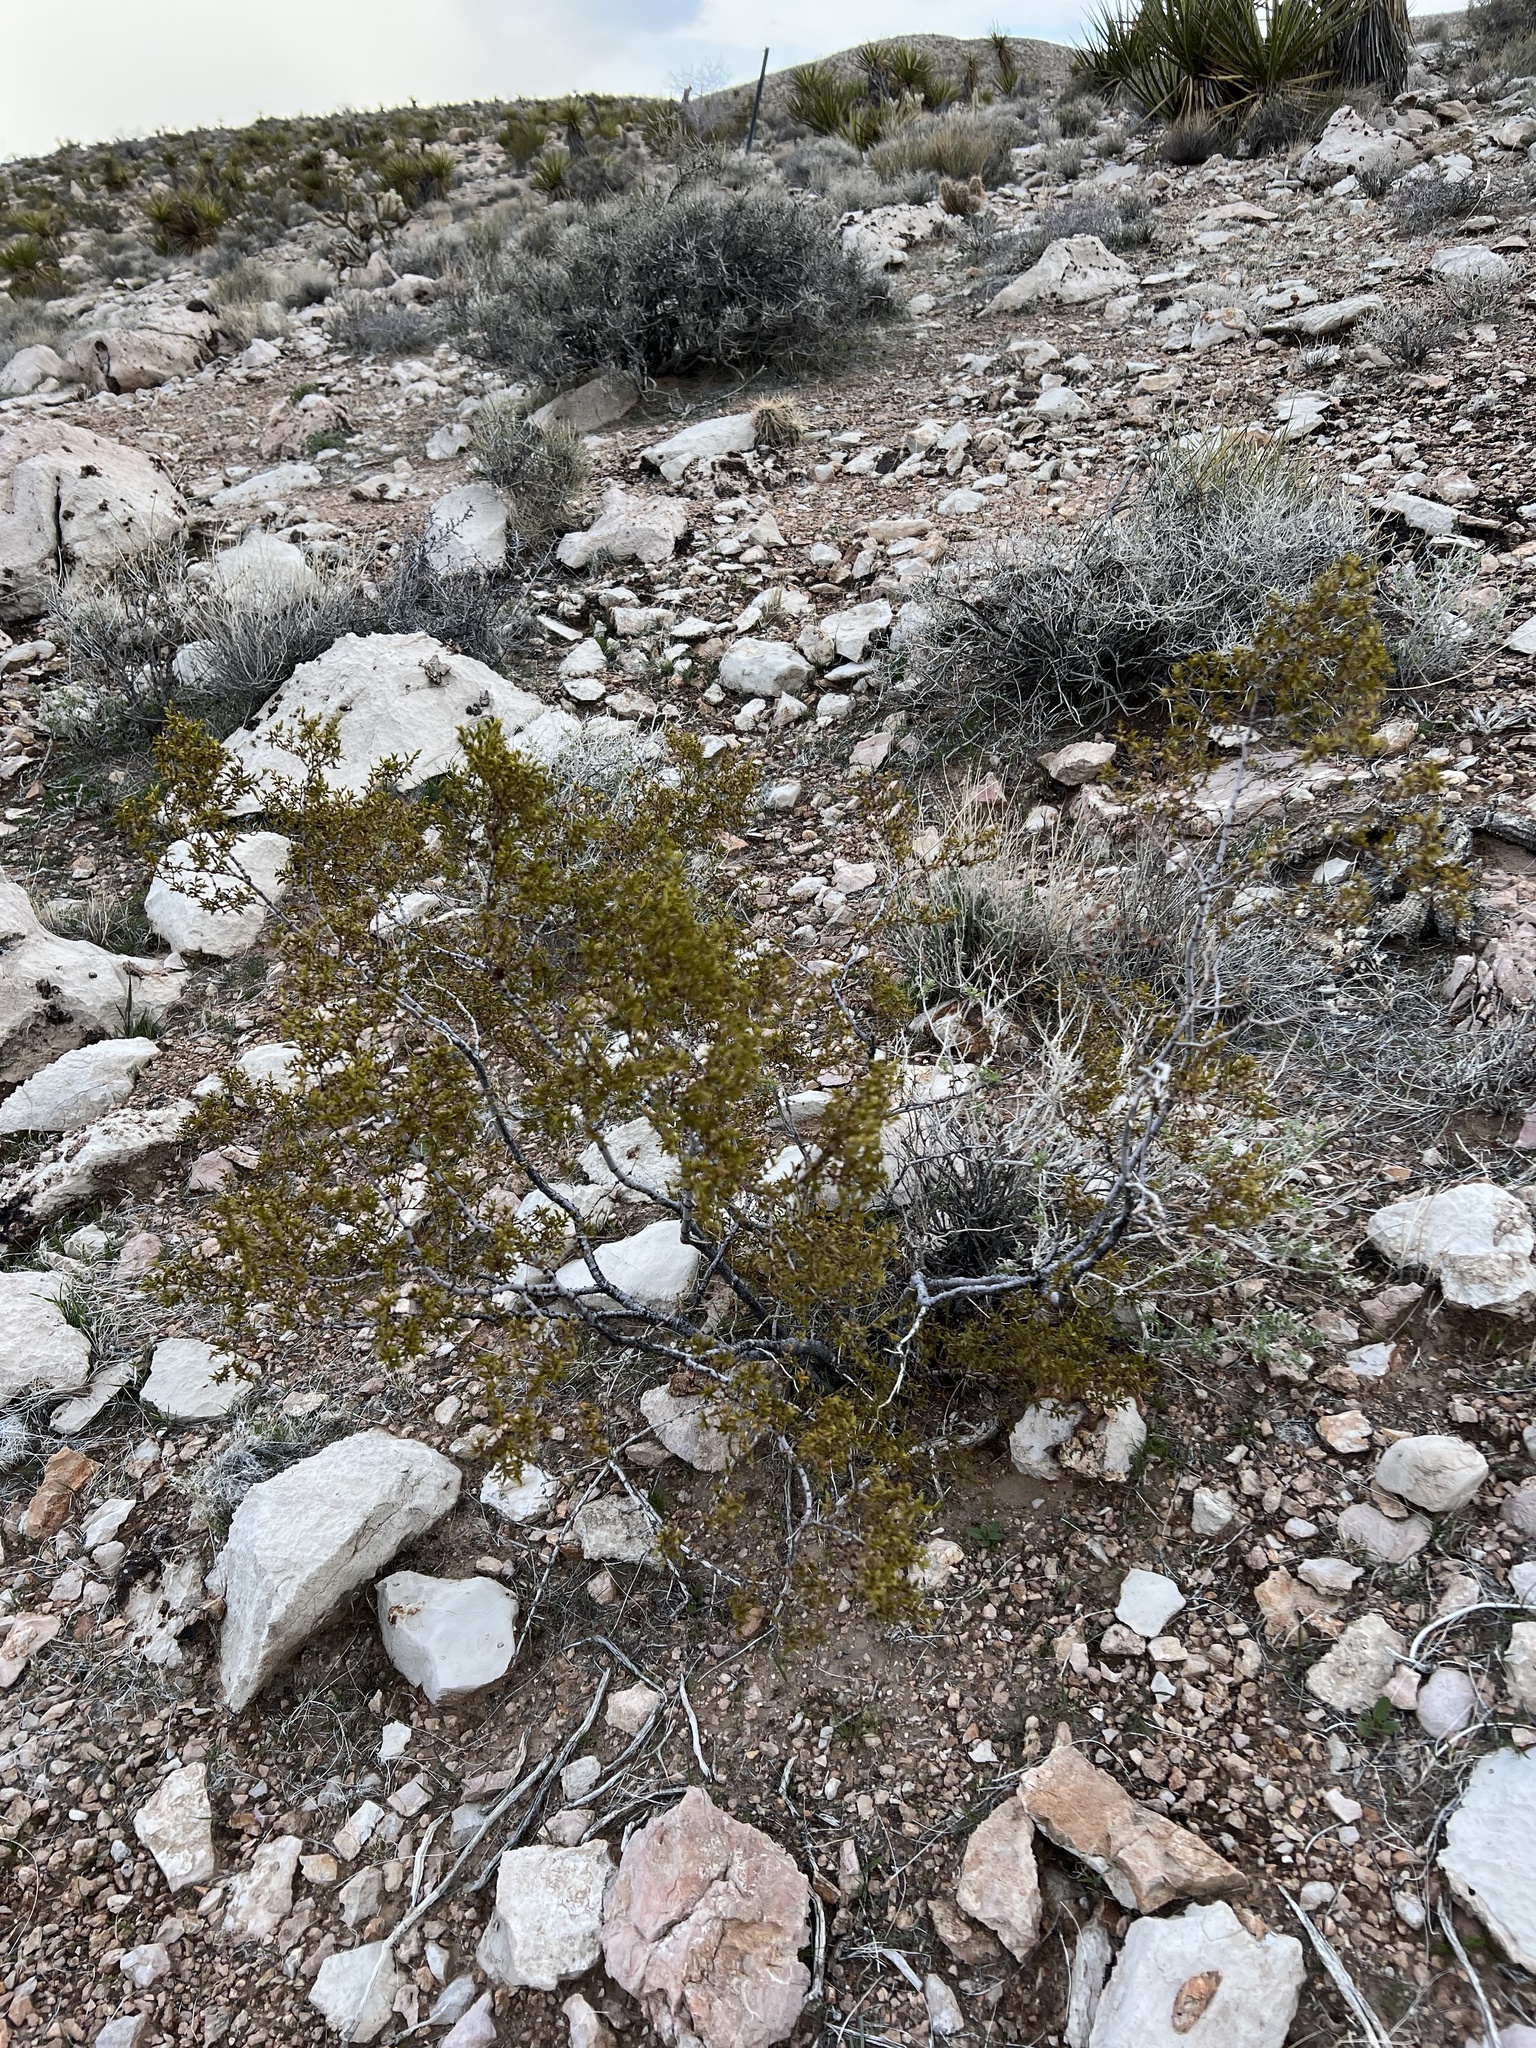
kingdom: Plantae
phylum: Tracheophyta
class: Magnoliopsida
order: Zygophyllales
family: Zygophyllaceae
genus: Larrea
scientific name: Larrea tridentata
